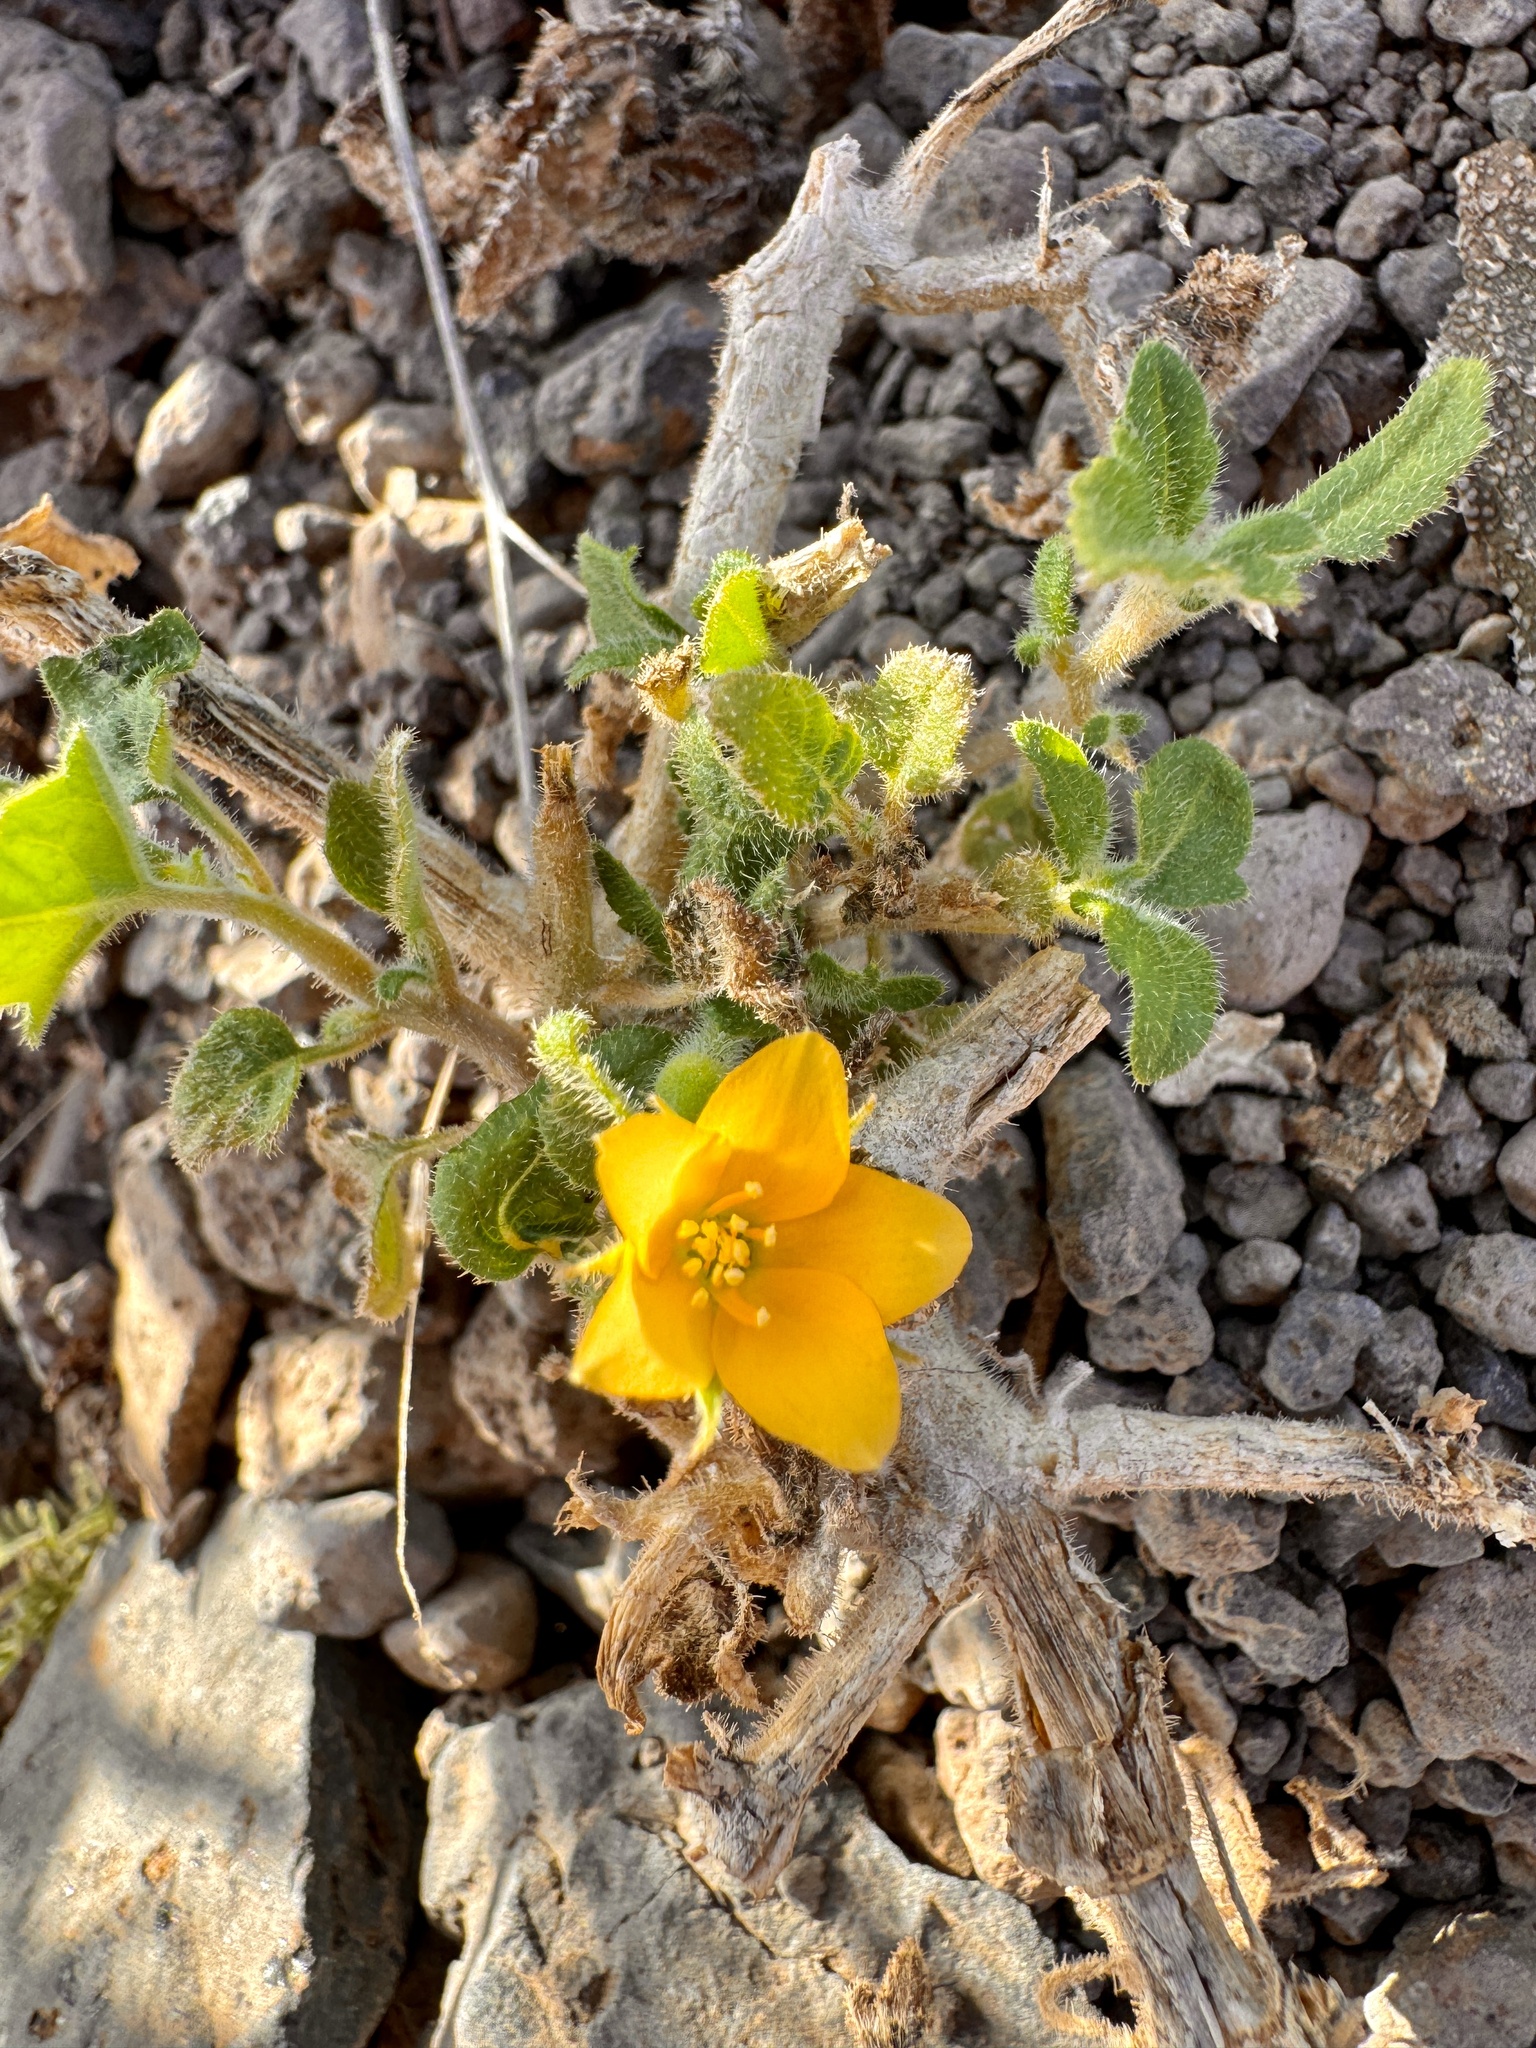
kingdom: Plantae
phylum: Tracheophyta
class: Magnoliopsida
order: Cornales
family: Loasaceae
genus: Mentzelia
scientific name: Mentzelia aspera
